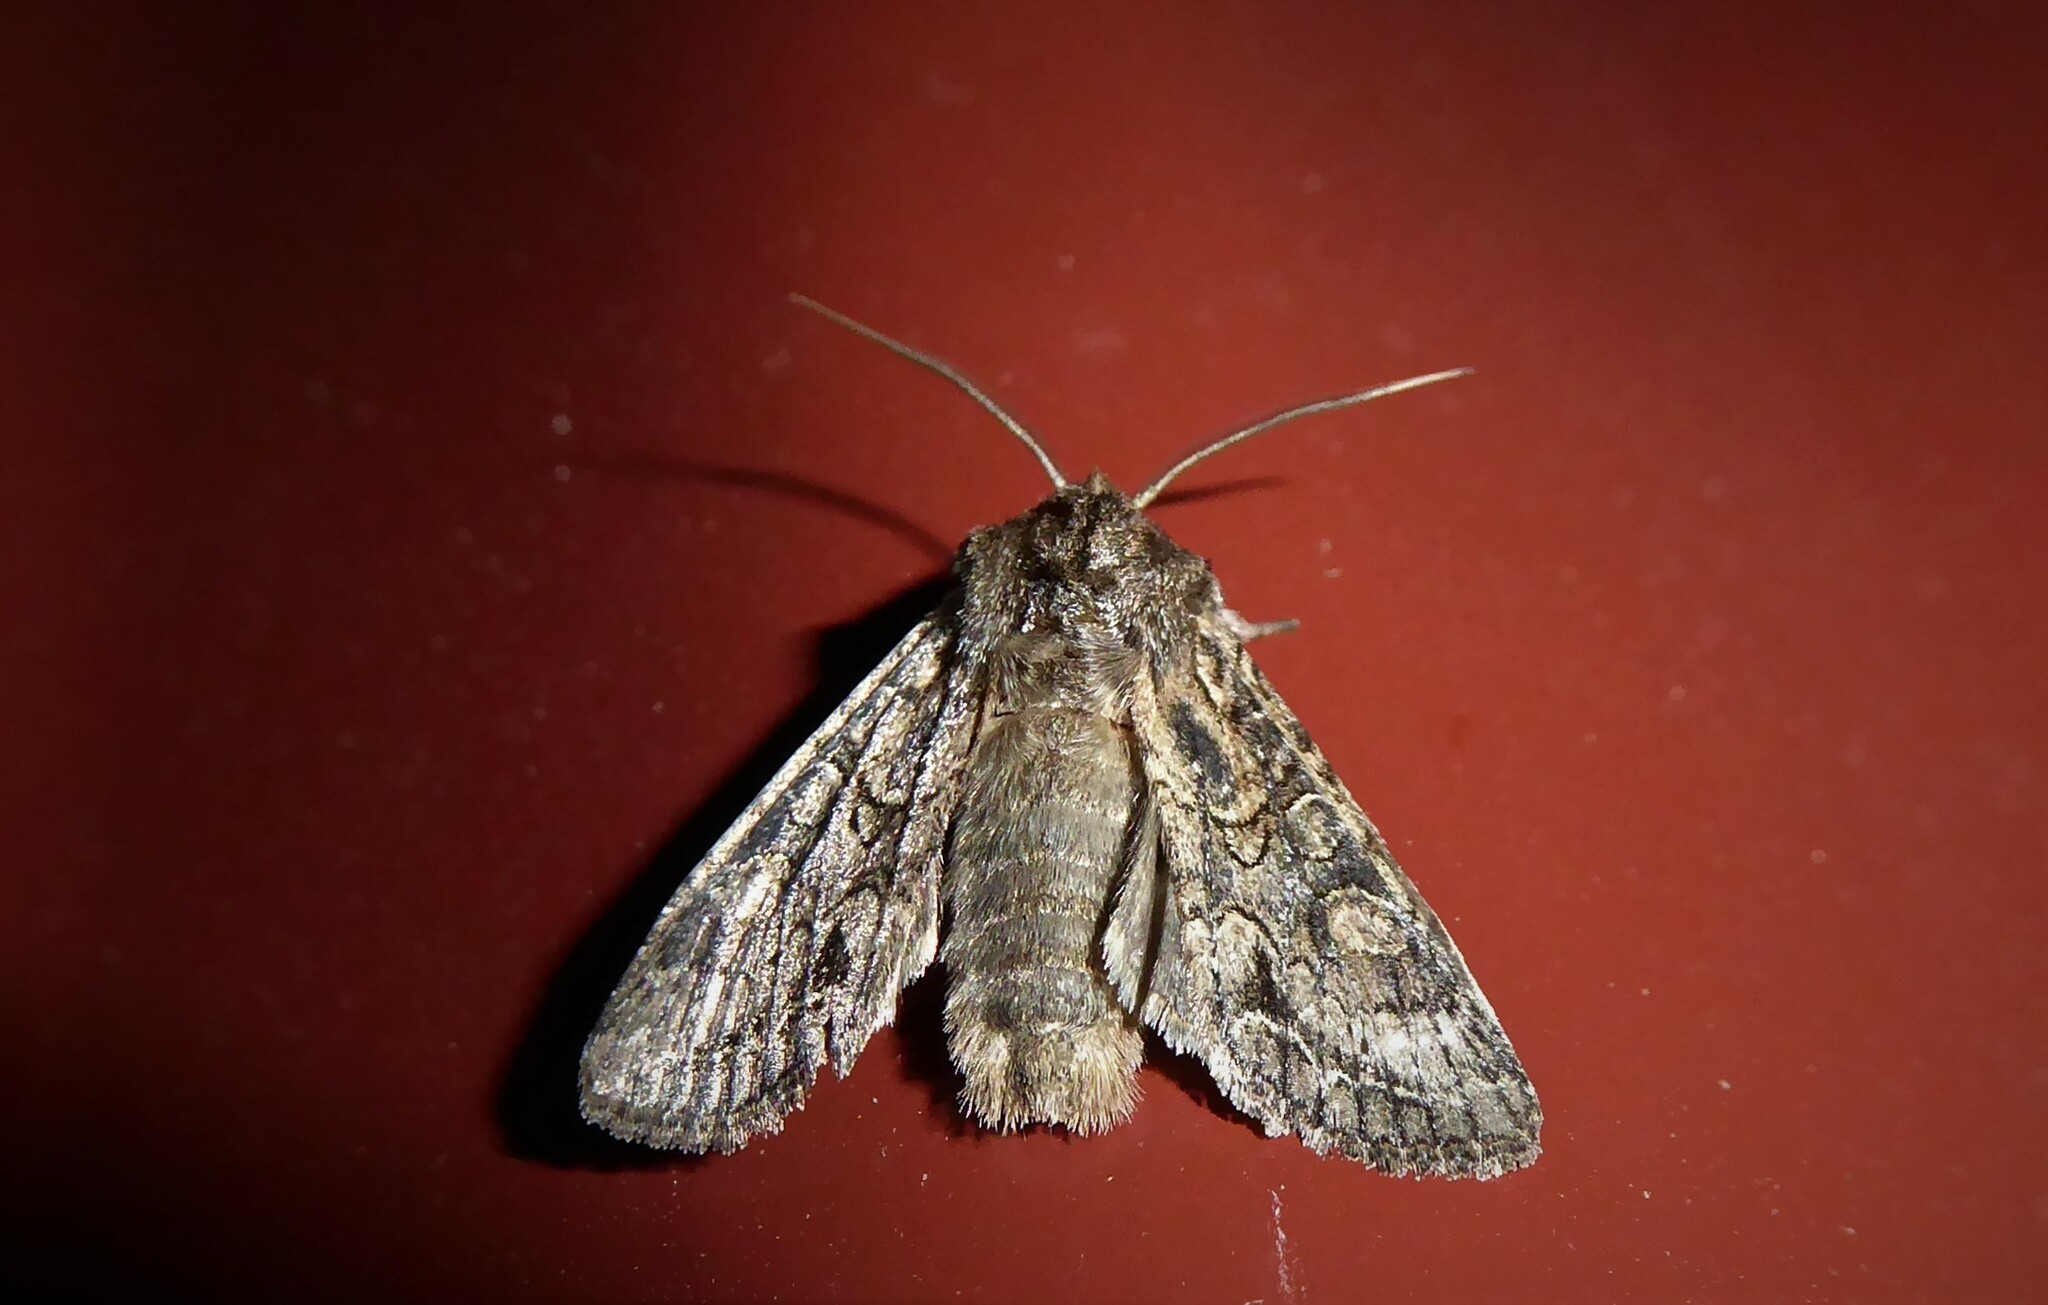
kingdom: Animalia
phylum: Arthropoda
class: Insecta
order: Lepidoptera
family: Noctuidae
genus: Ichneutica
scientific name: Ichneutica mutans
